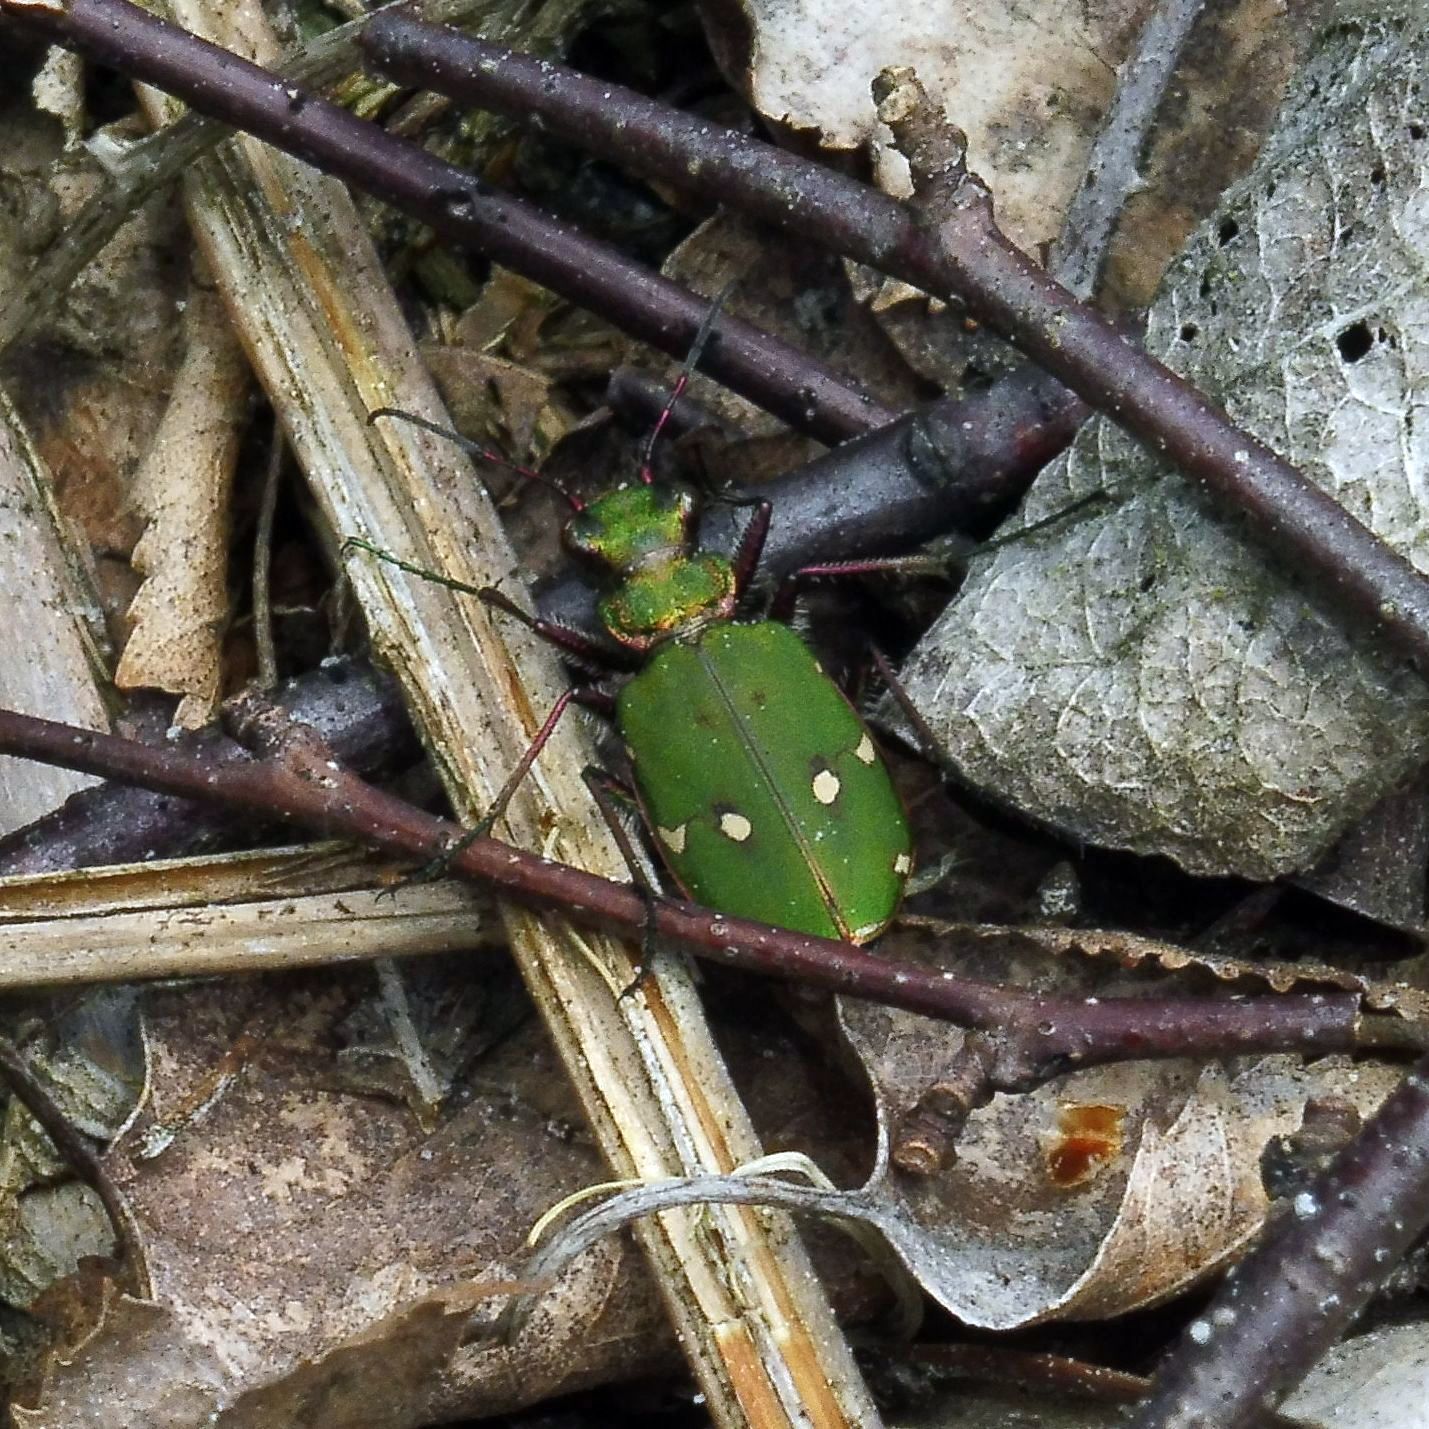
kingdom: Animalia
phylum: Arthropoda
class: Insecta
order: Coleoptera
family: Carabidae
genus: Cicindela
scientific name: Cicindela campestris
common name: Common tiger beetle
